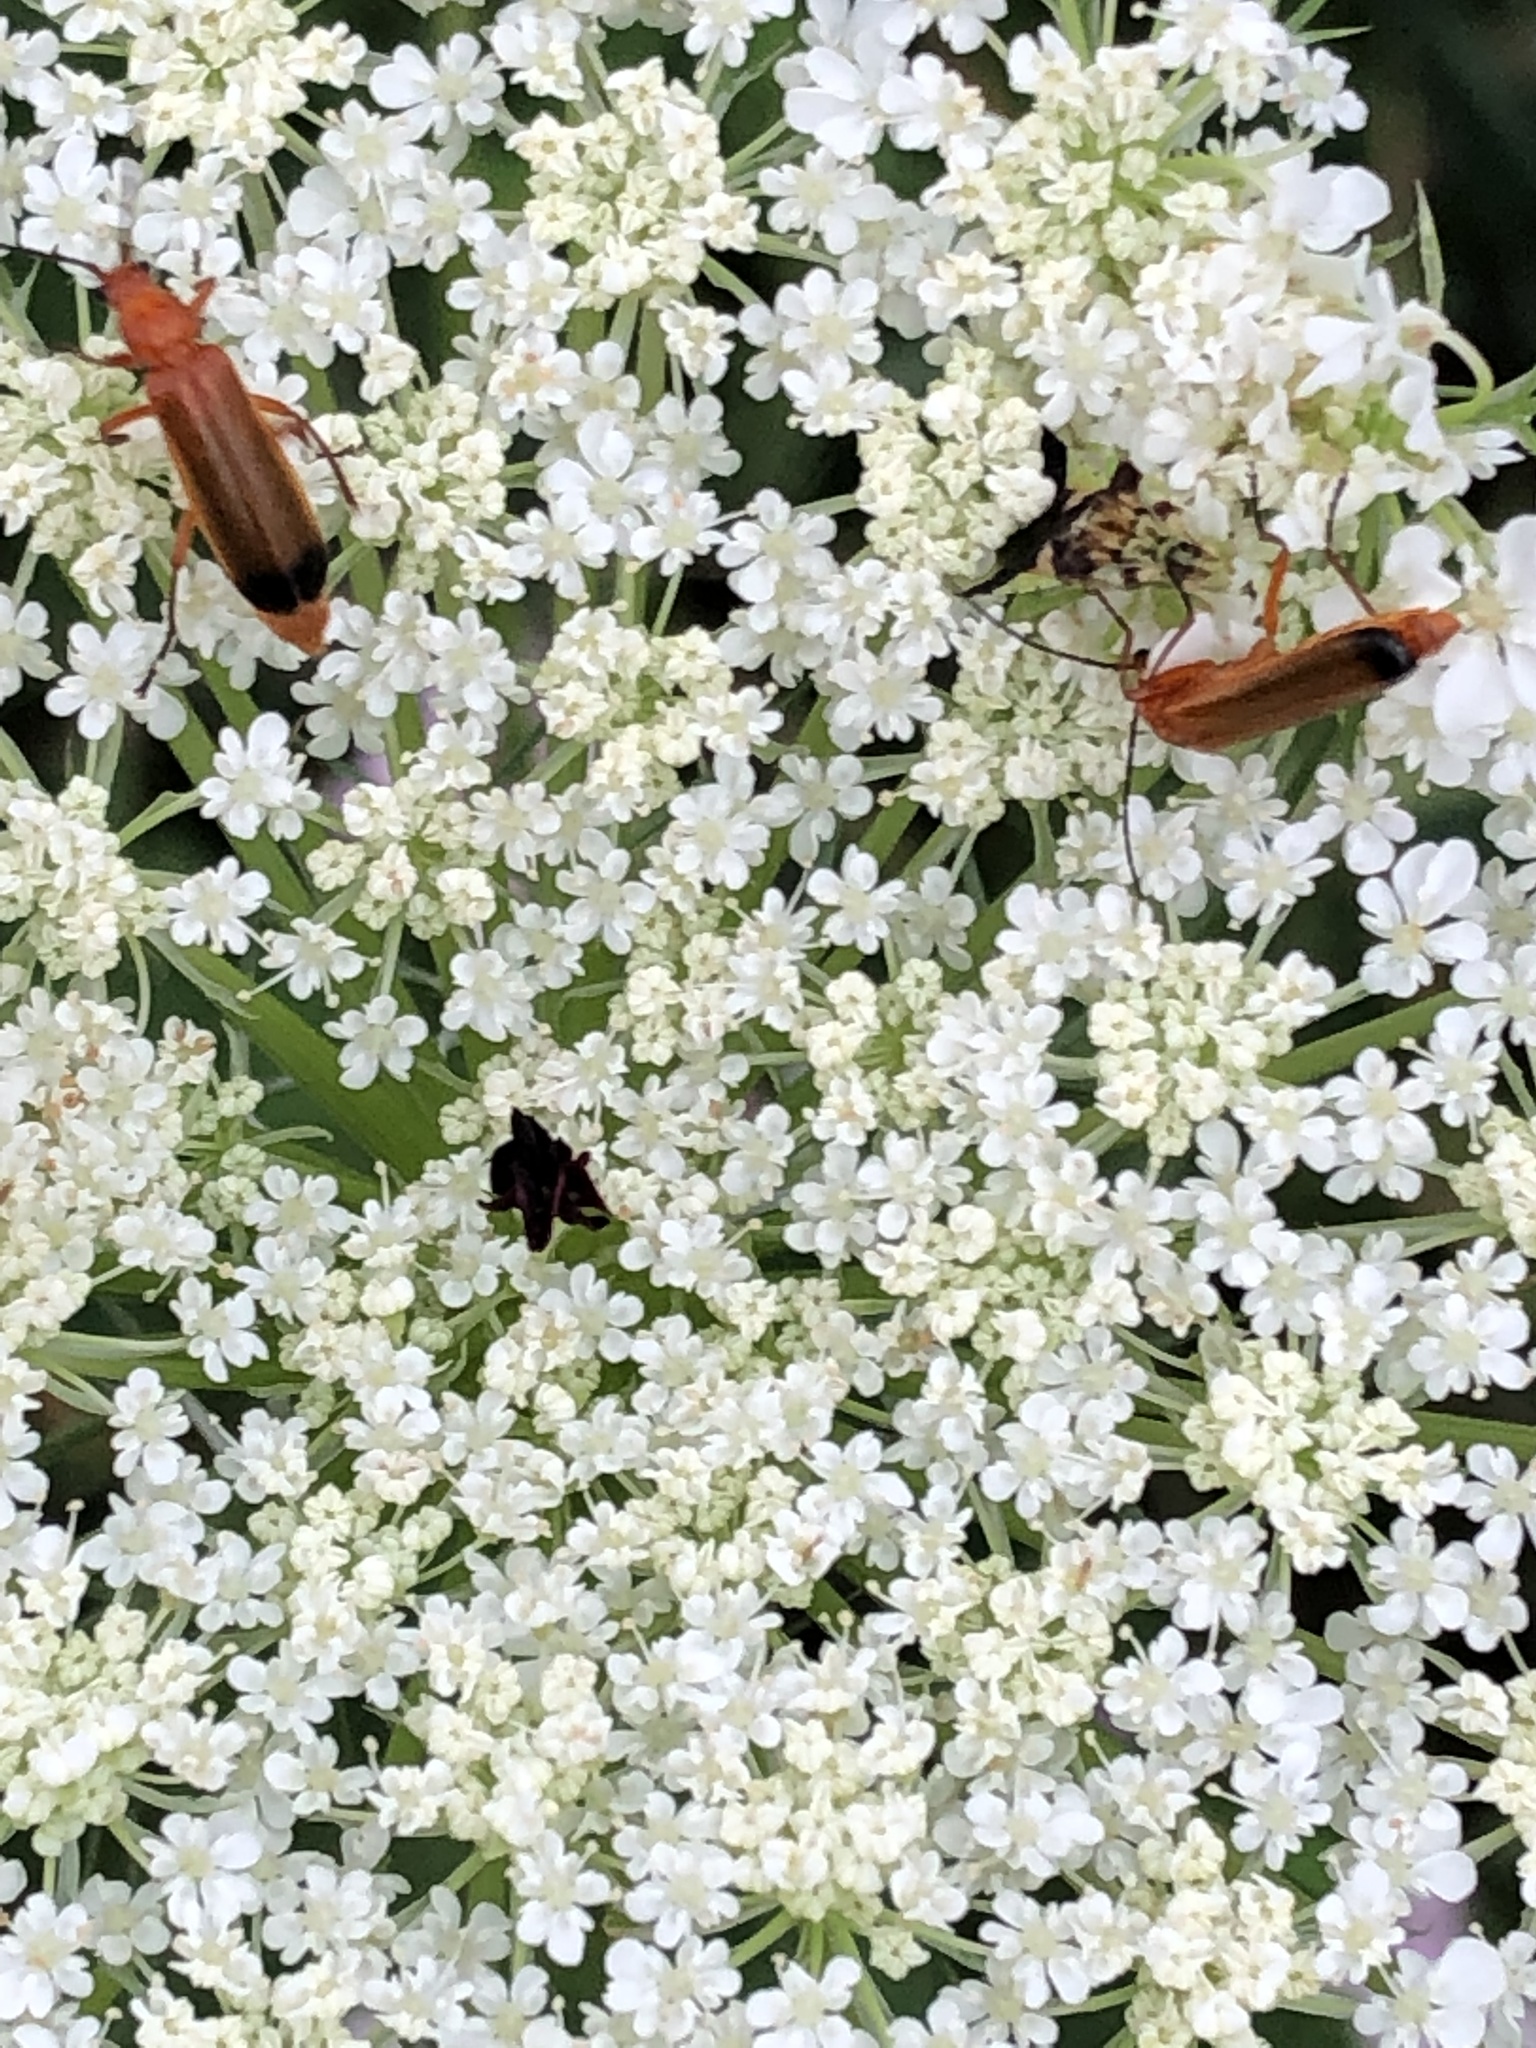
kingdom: Animalia
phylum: Arthropoda
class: Insecta
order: Coleoptera
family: Cantharidae
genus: Rhagonycha
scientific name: Rhagonycha fulva
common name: Common red soldier beetle
